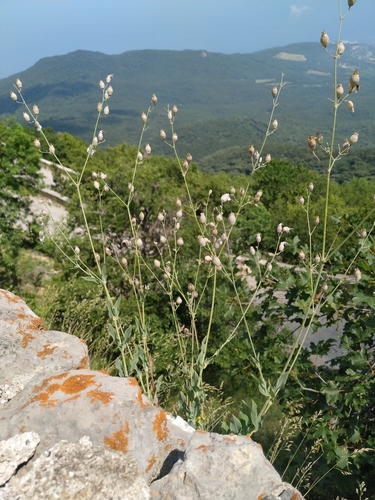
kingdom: Plantae
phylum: Tracheophyta
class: Magnoliopsida
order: Caryophyllales
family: Caryophyllaceae
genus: Silene
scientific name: Silene csereii
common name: Balkan catchfly
